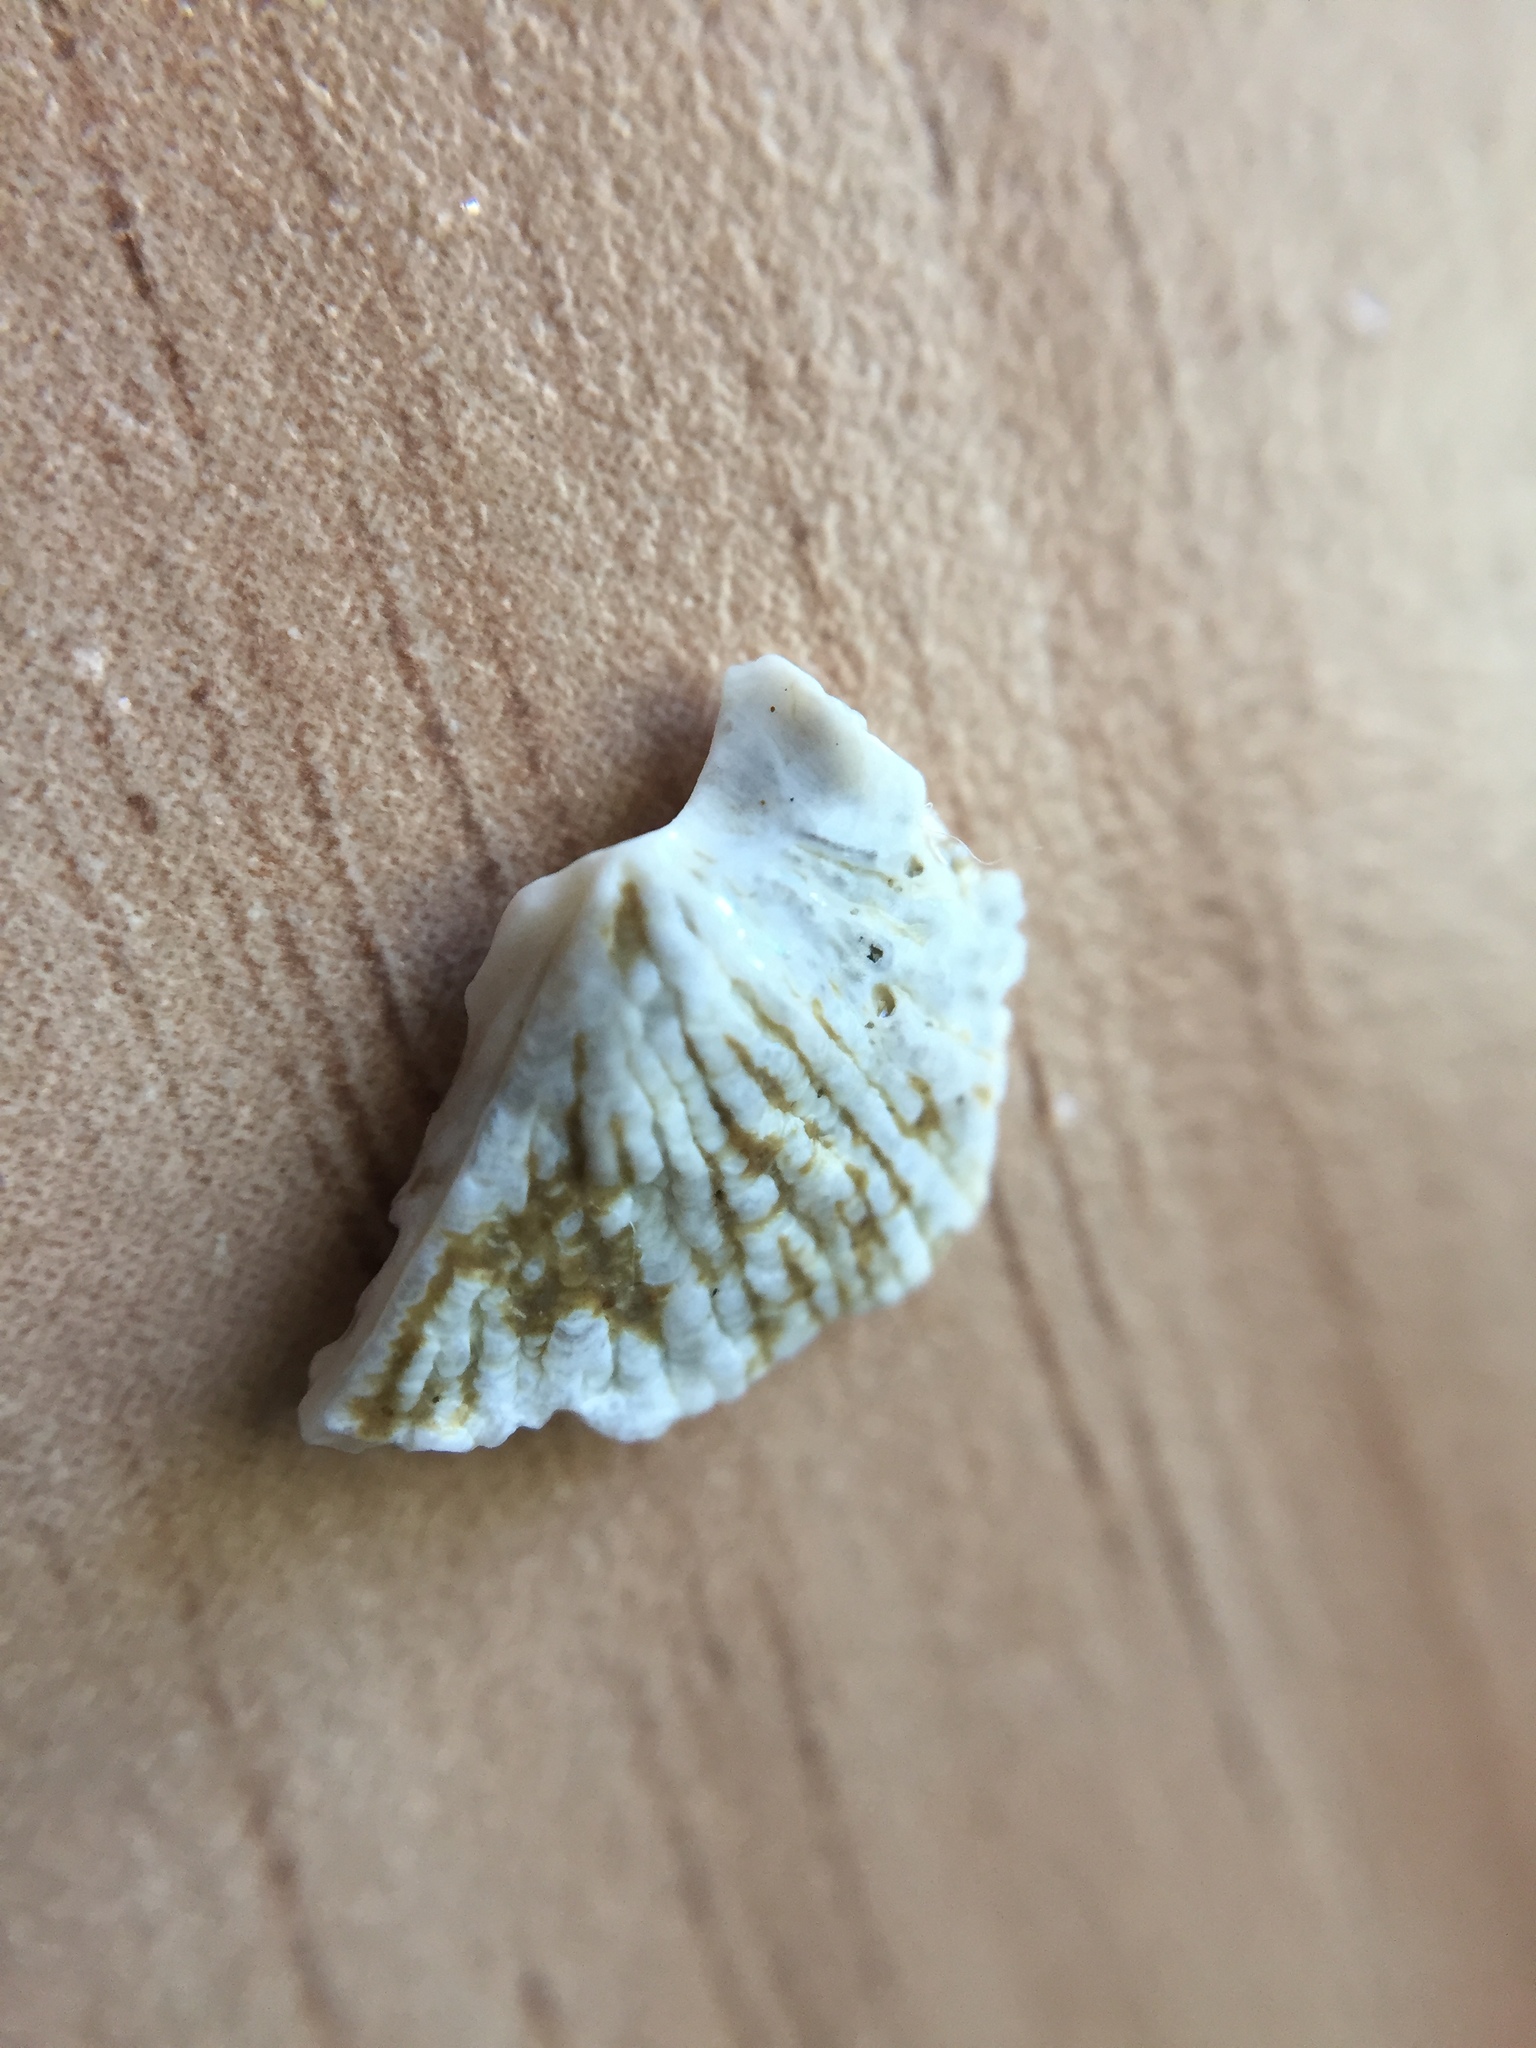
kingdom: Animalia
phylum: Arthropoda
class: Maxillopoda
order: Sessilia
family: Tetraclitidae
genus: Tetraclitella
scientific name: Tetraclitella depressa
